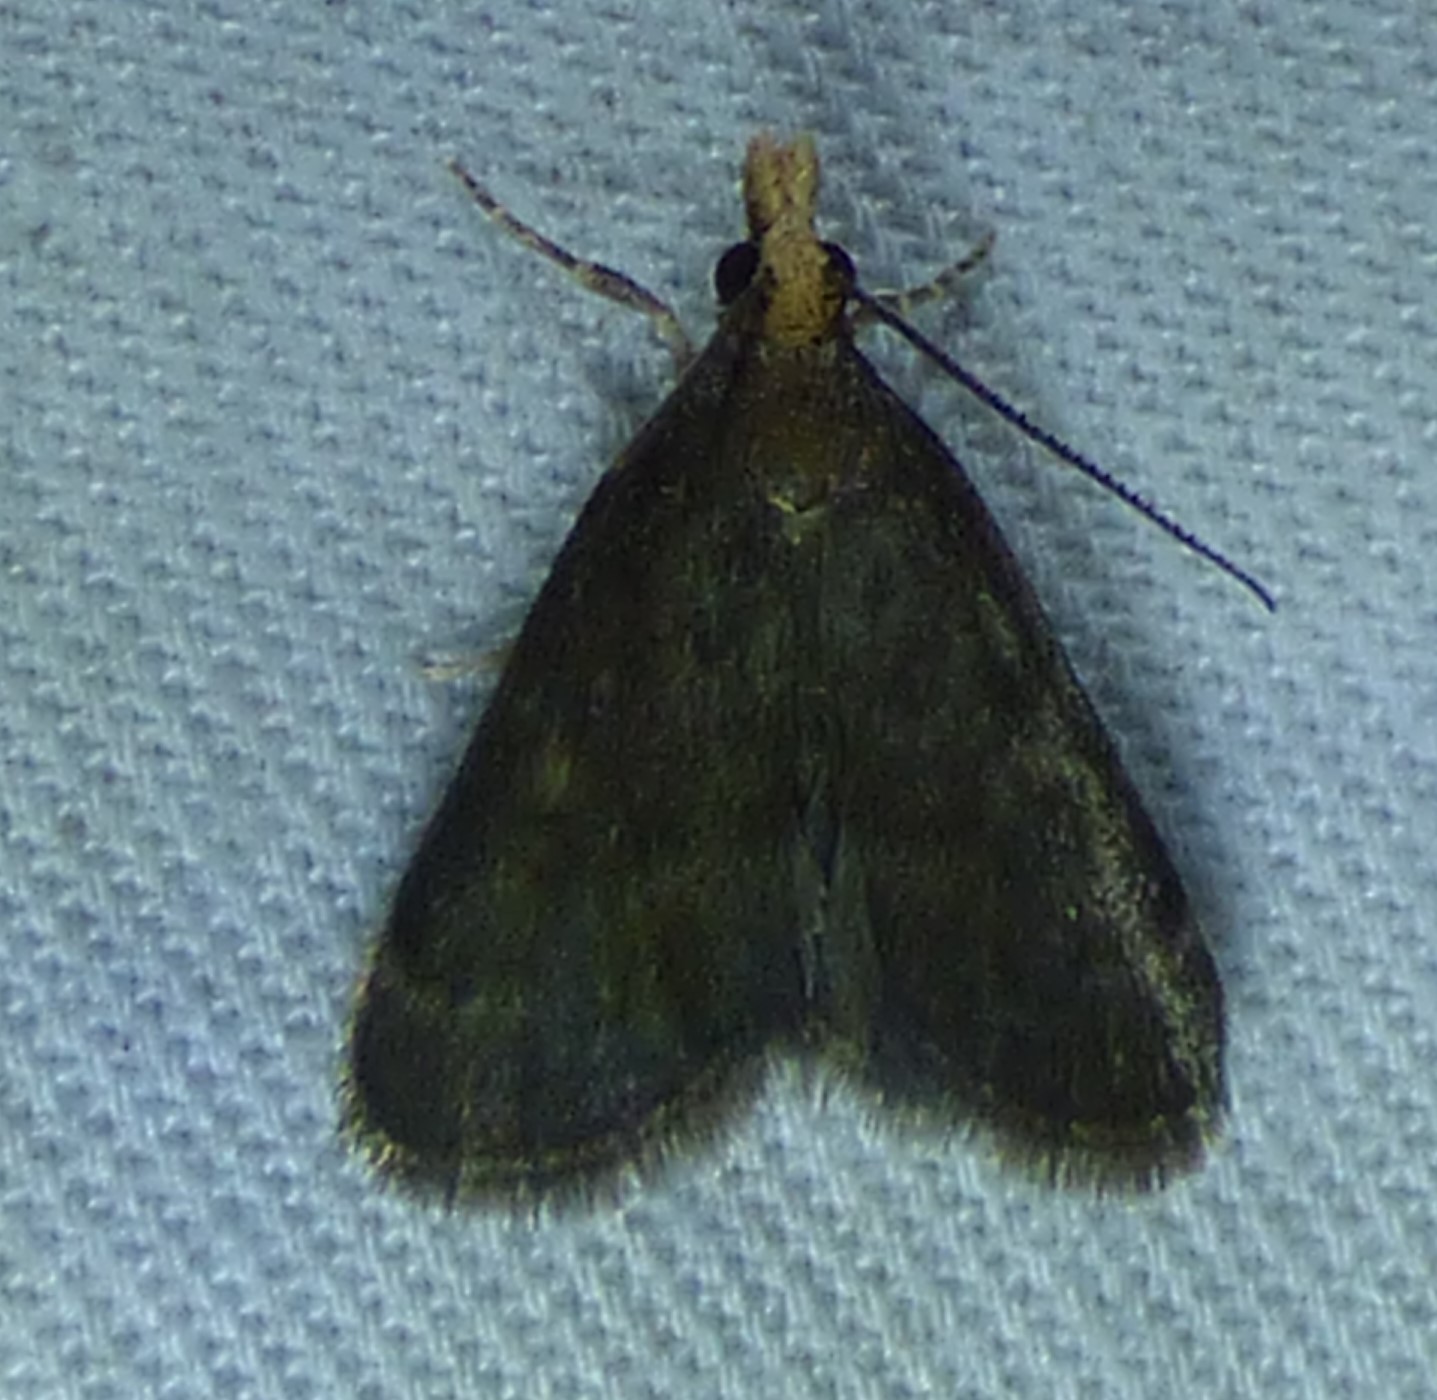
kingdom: Animalia
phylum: Arthropoda
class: Insecta
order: Lepidoptera
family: Crambidae
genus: Pyrausta
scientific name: Pyrausta merrickalis
